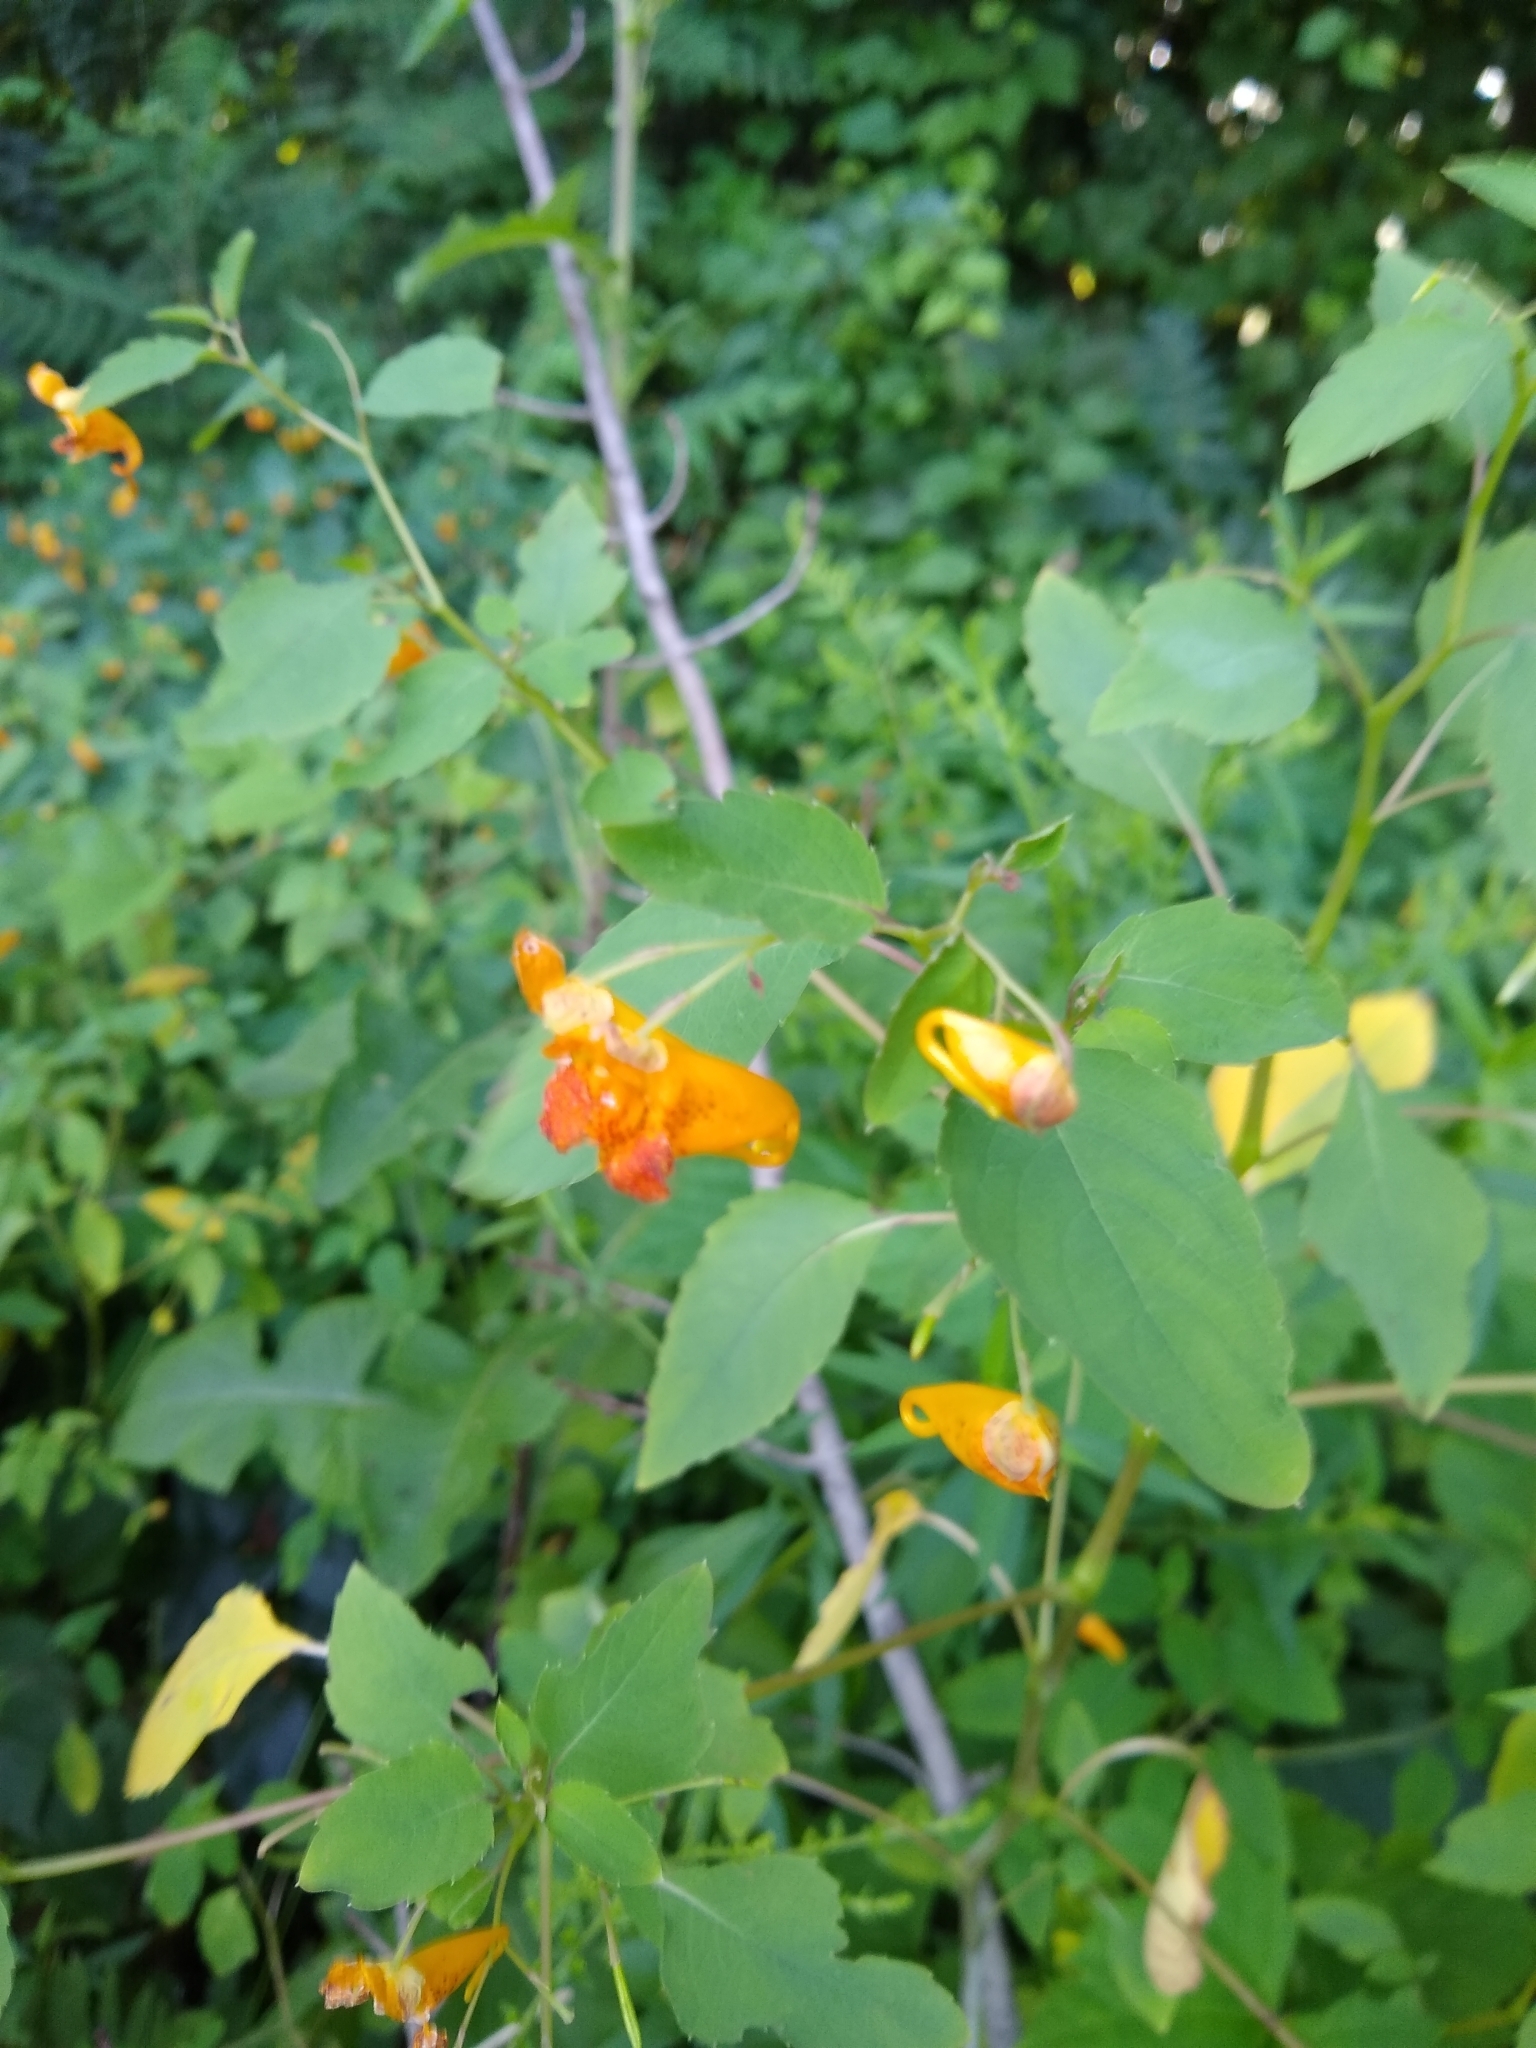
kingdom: Plantae
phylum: Tracheophyta
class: Magnoliopsida
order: Ericales
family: Balsaminaceae
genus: Impatiens
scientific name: Impatiens capensis
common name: Orange balsam
